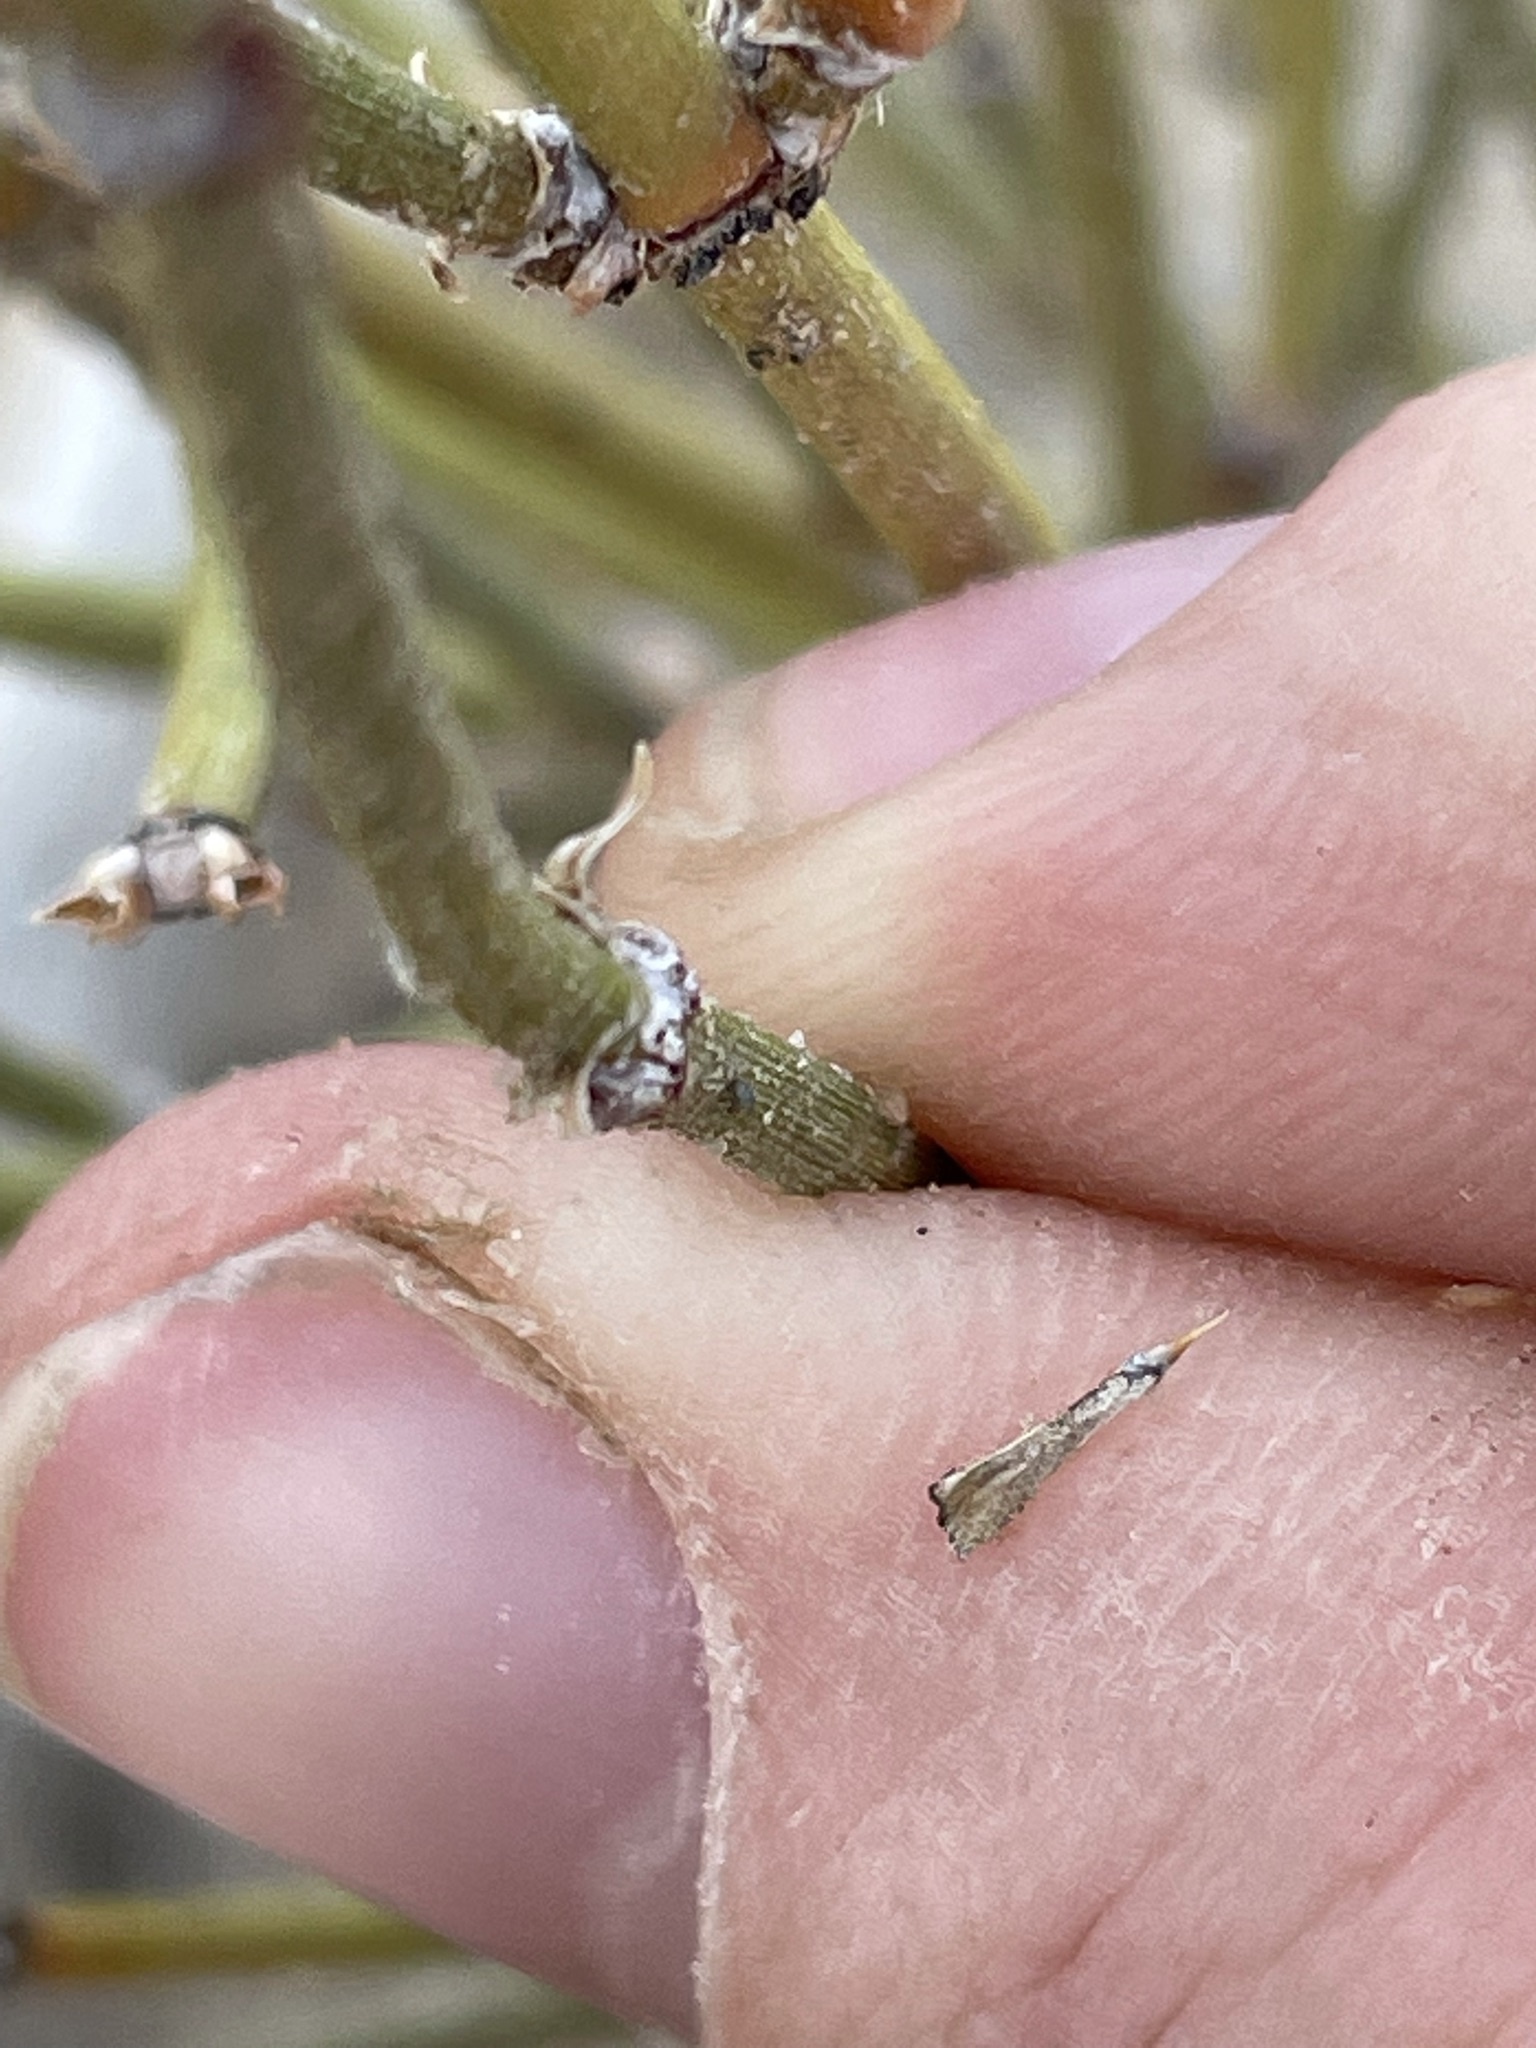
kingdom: Plantae
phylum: Tracheophyta
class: Gnetopsida
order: Ephedrales
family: Ephedraceae
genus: Ephedra
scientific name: Ephedra cutleri
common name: Cutler morning-tea
